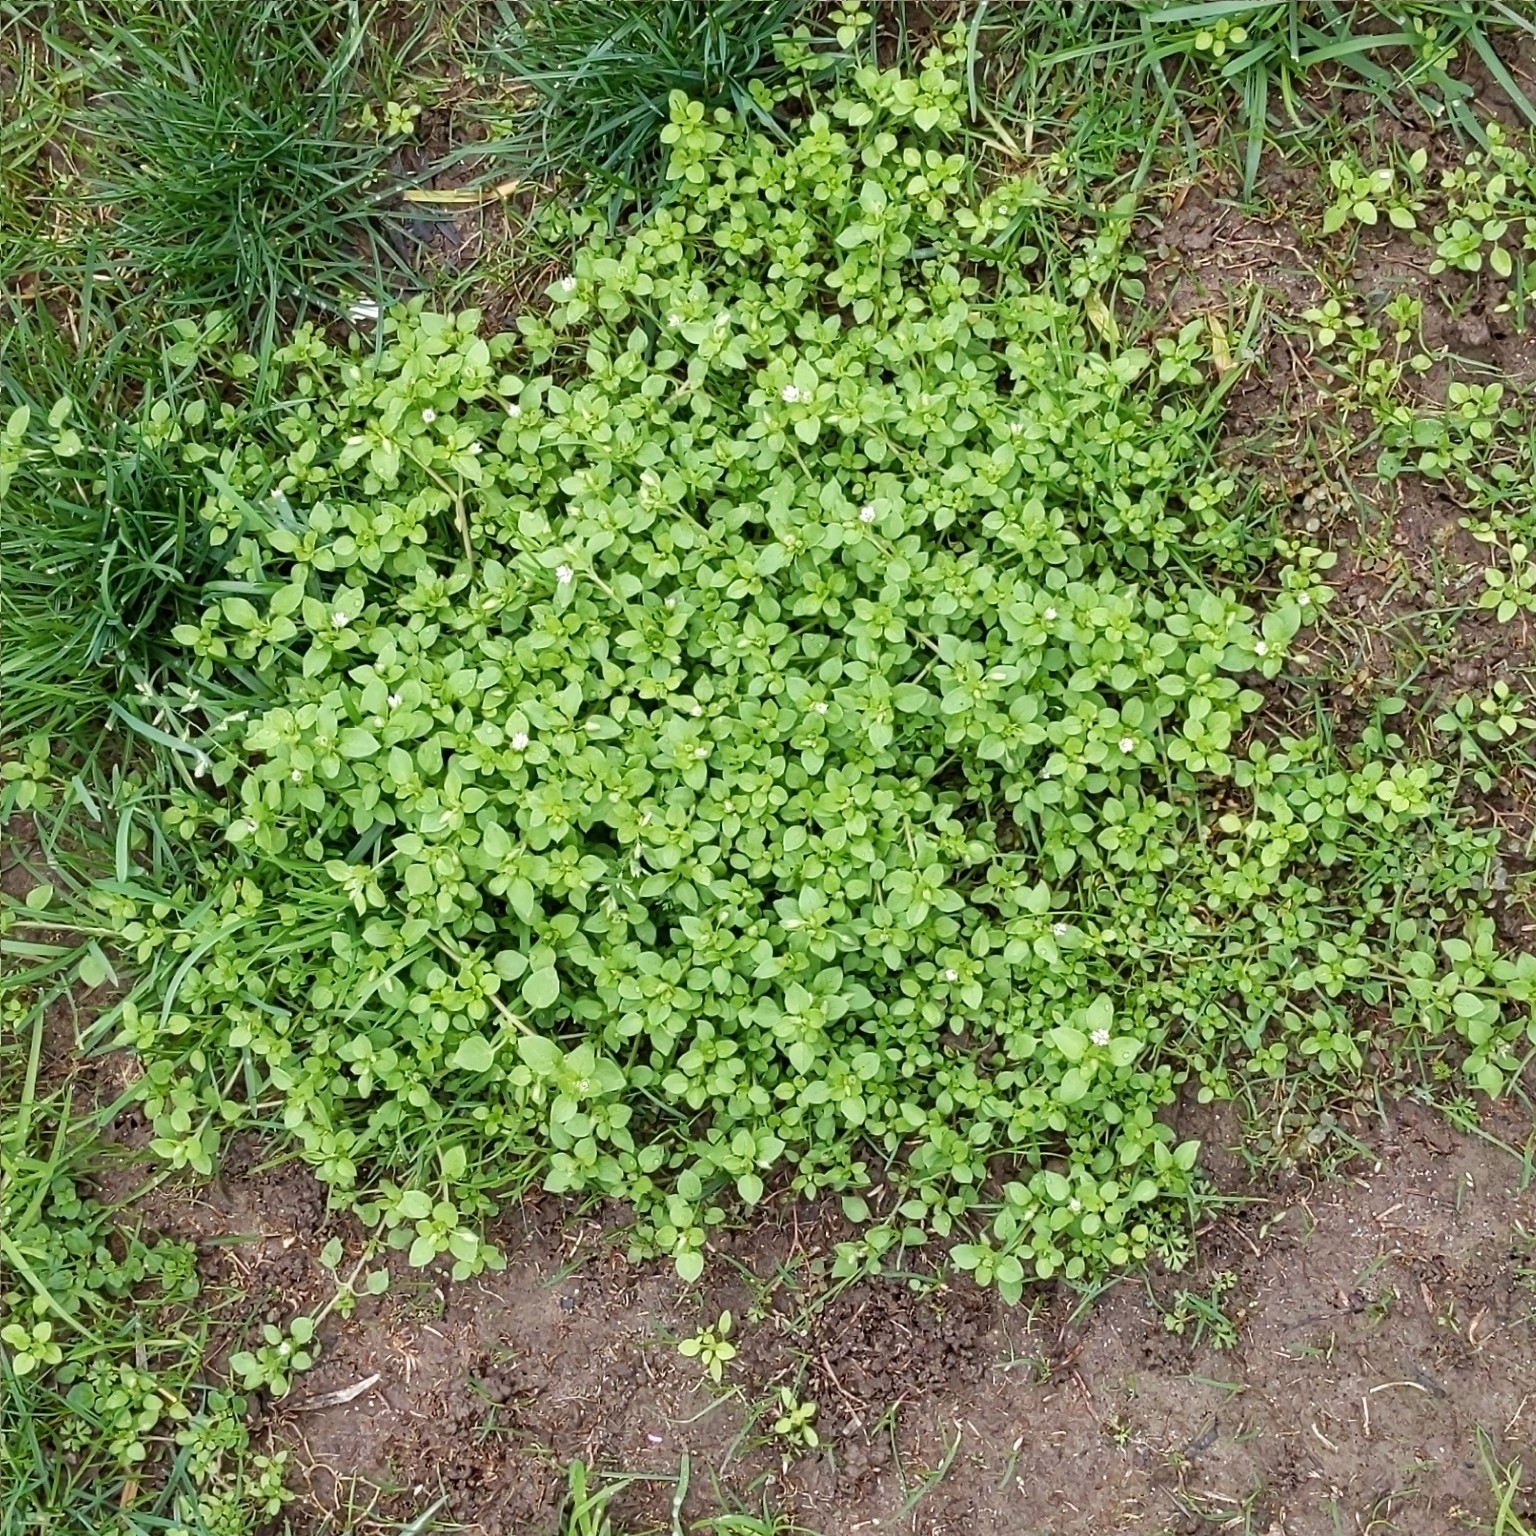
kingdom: Plantae
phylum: Tracheophyta
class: Magnoliopsida
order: Caryophyllales
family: Caryophyllaceae
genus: Stellaria
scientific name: Stellaria media
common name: Common chickweed
